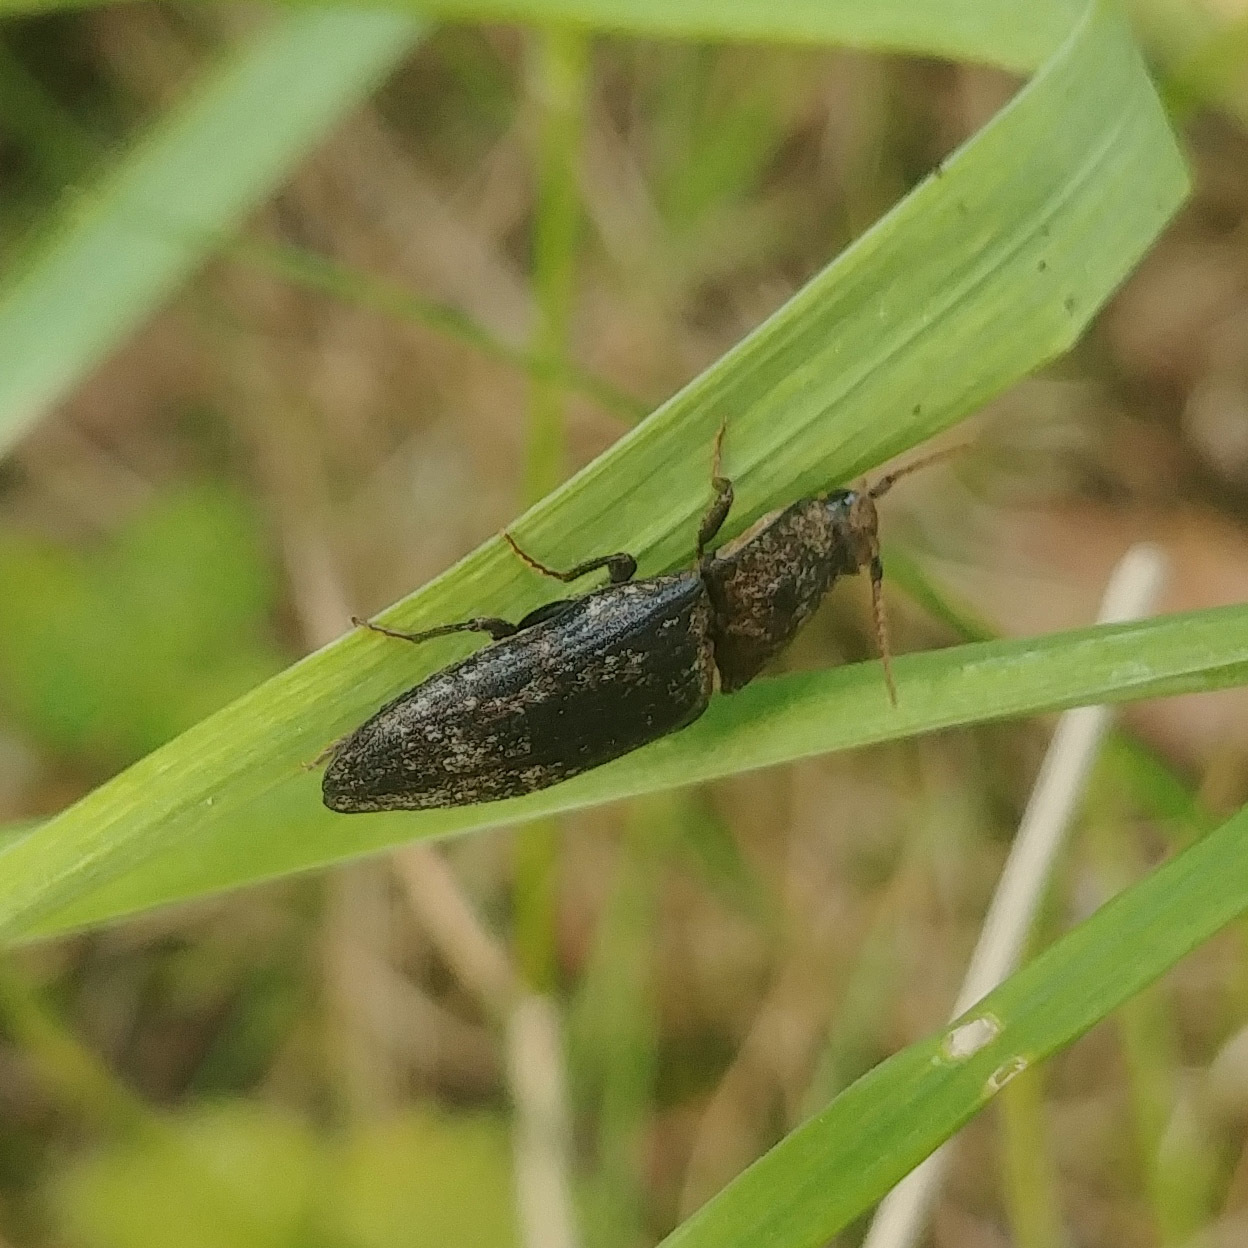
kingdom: Animalia
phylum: Arthropoda
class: Insecta
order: Coleoptera
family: Elateridae
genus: Agrypnus
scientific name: Agrypnus murinus
